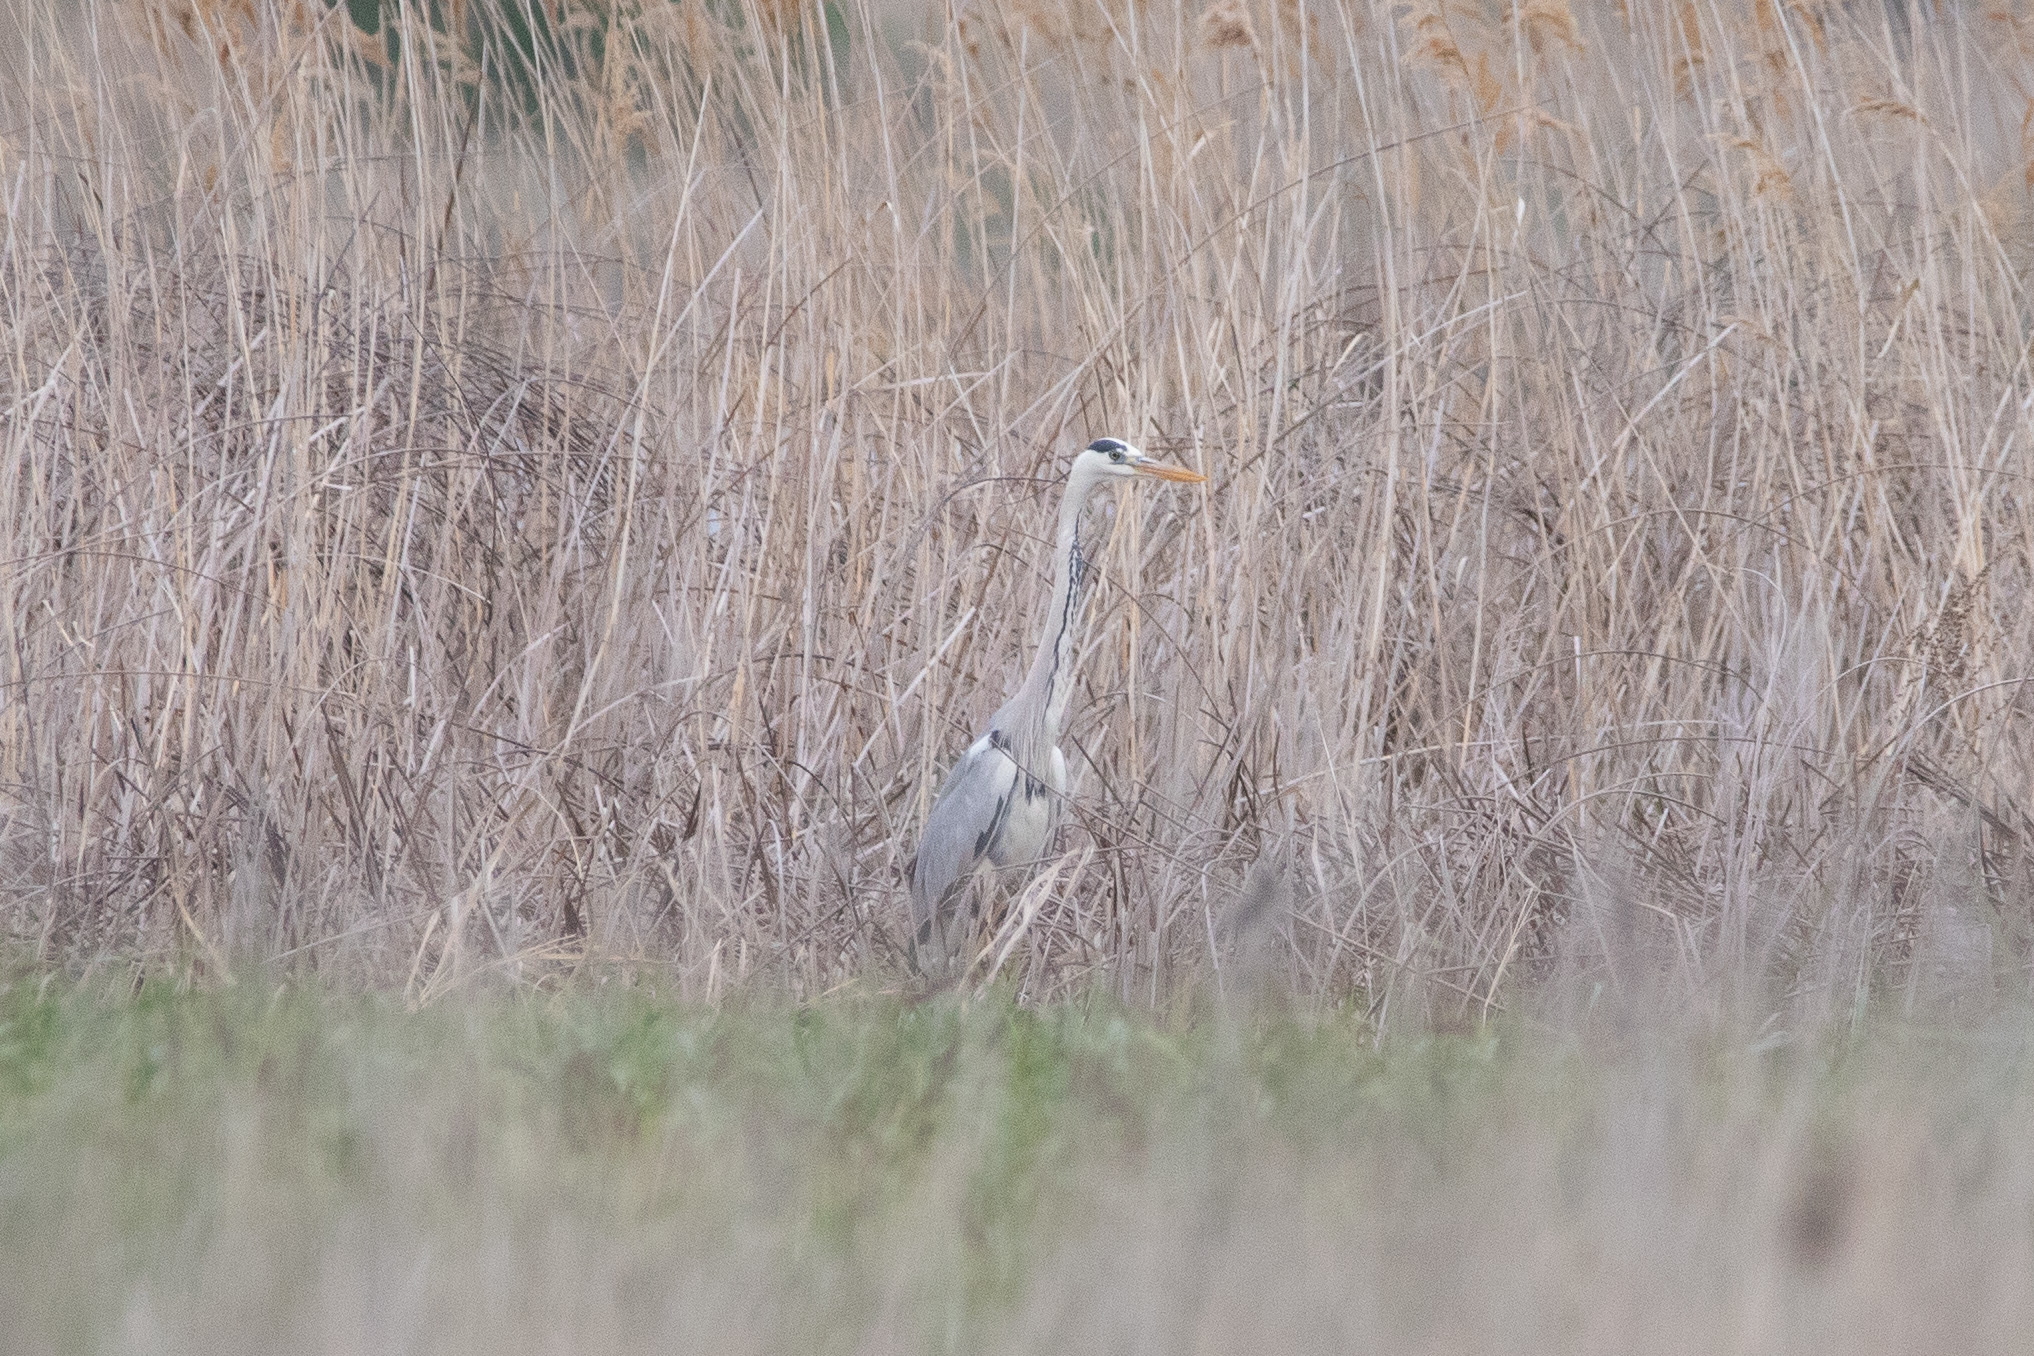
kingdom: Animalia
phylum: Chordata
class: Aves
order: Pelecaniformes
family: Ardeidae
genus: Ardea
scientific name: Ardea cinerea
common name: Grey heron
